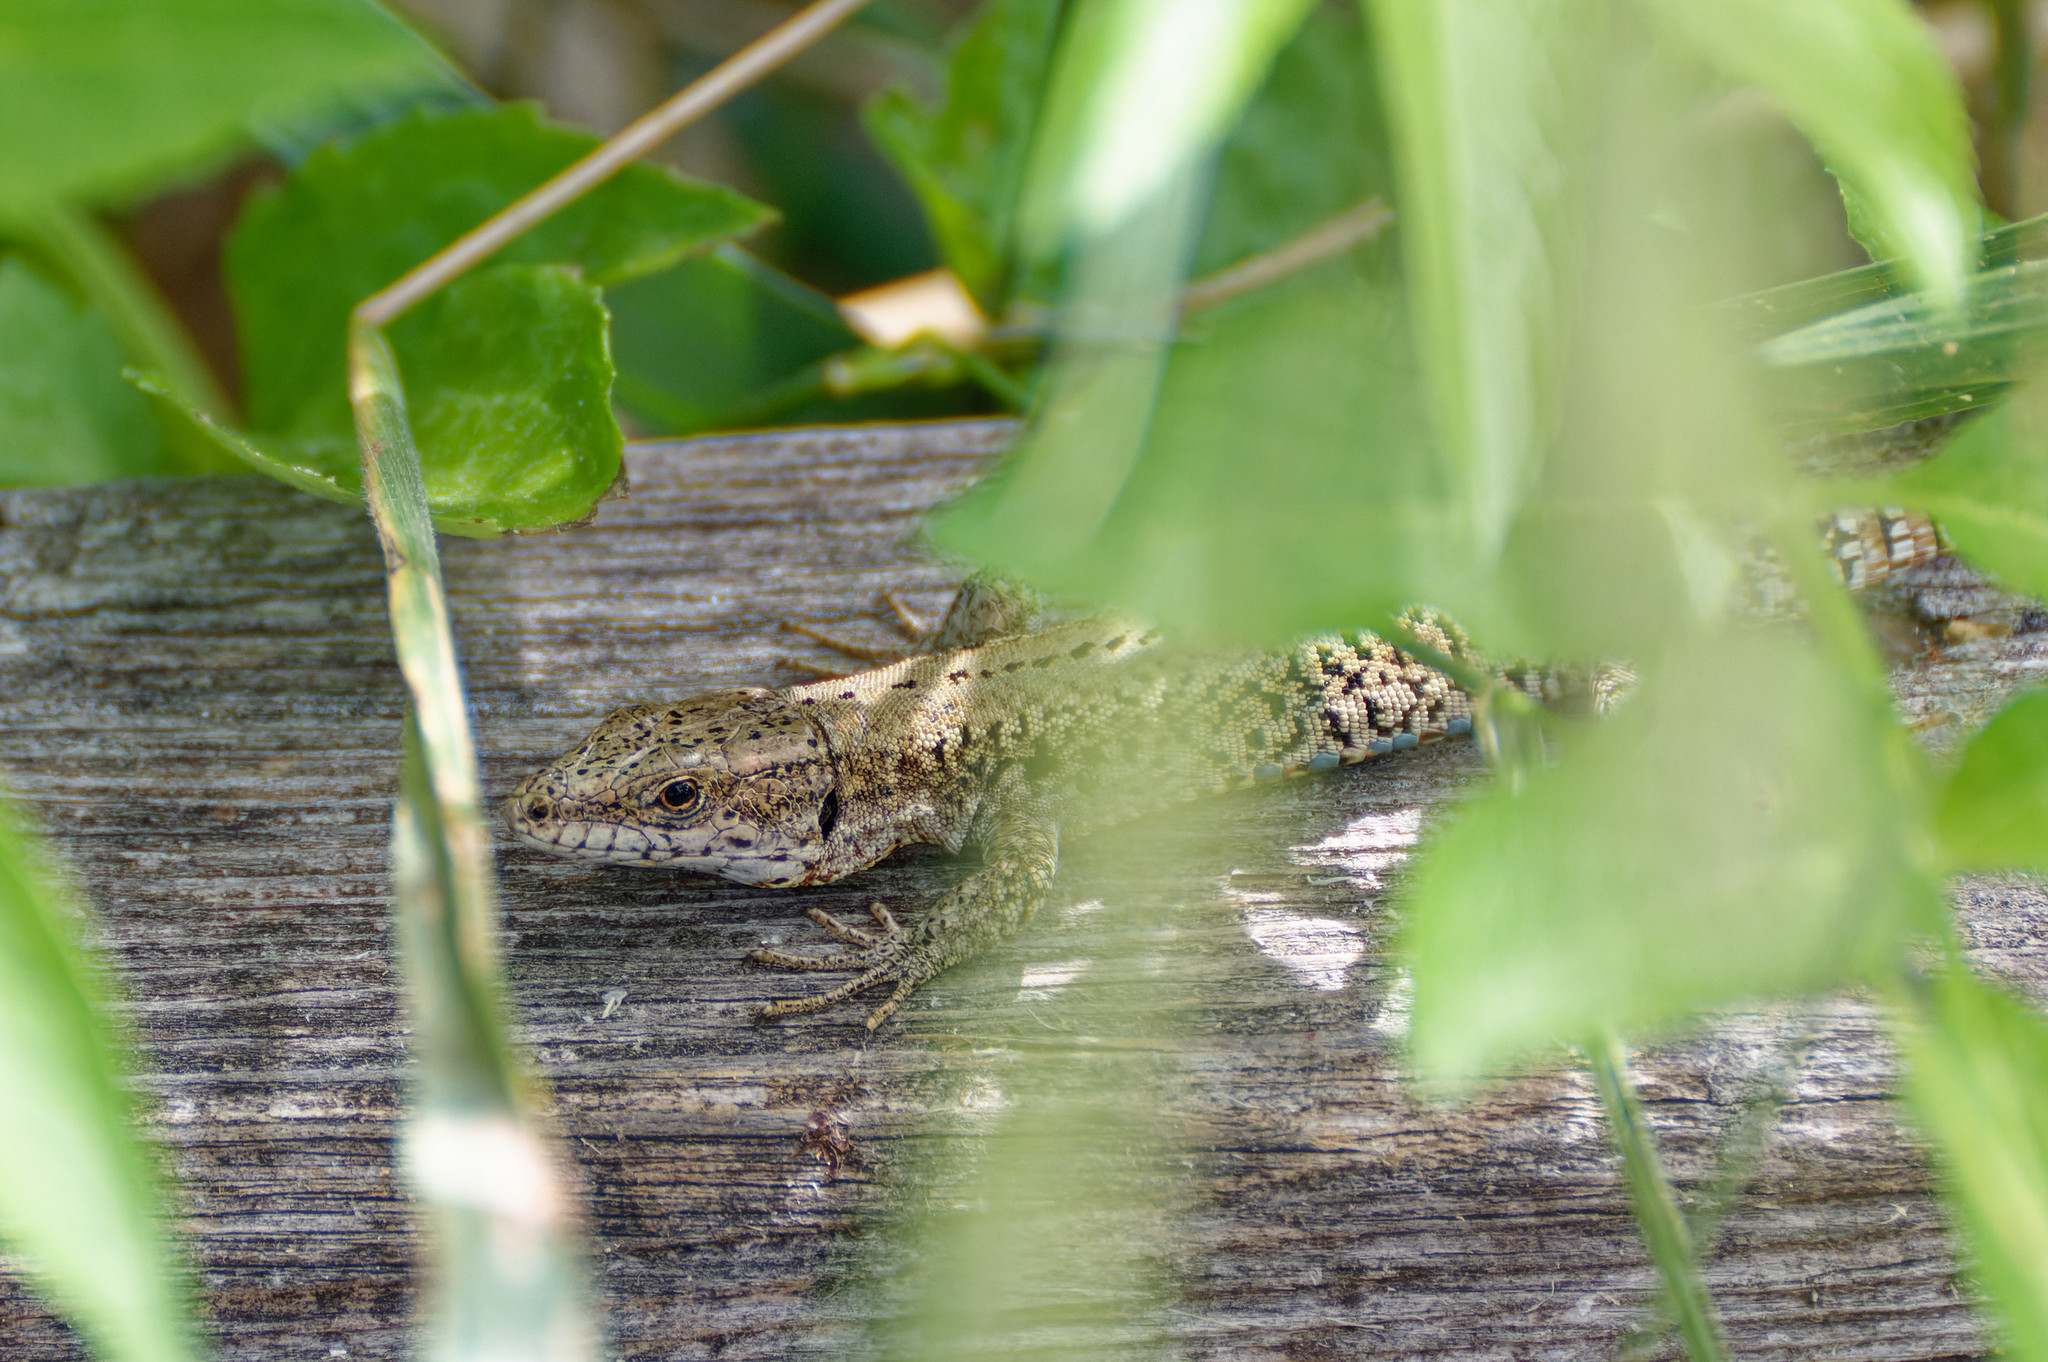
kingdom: Animalia
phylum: Chordata
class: Squamata
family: Lacertidae
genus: Podarcis
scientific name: Podarcis muralis
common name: Common wall lizard
